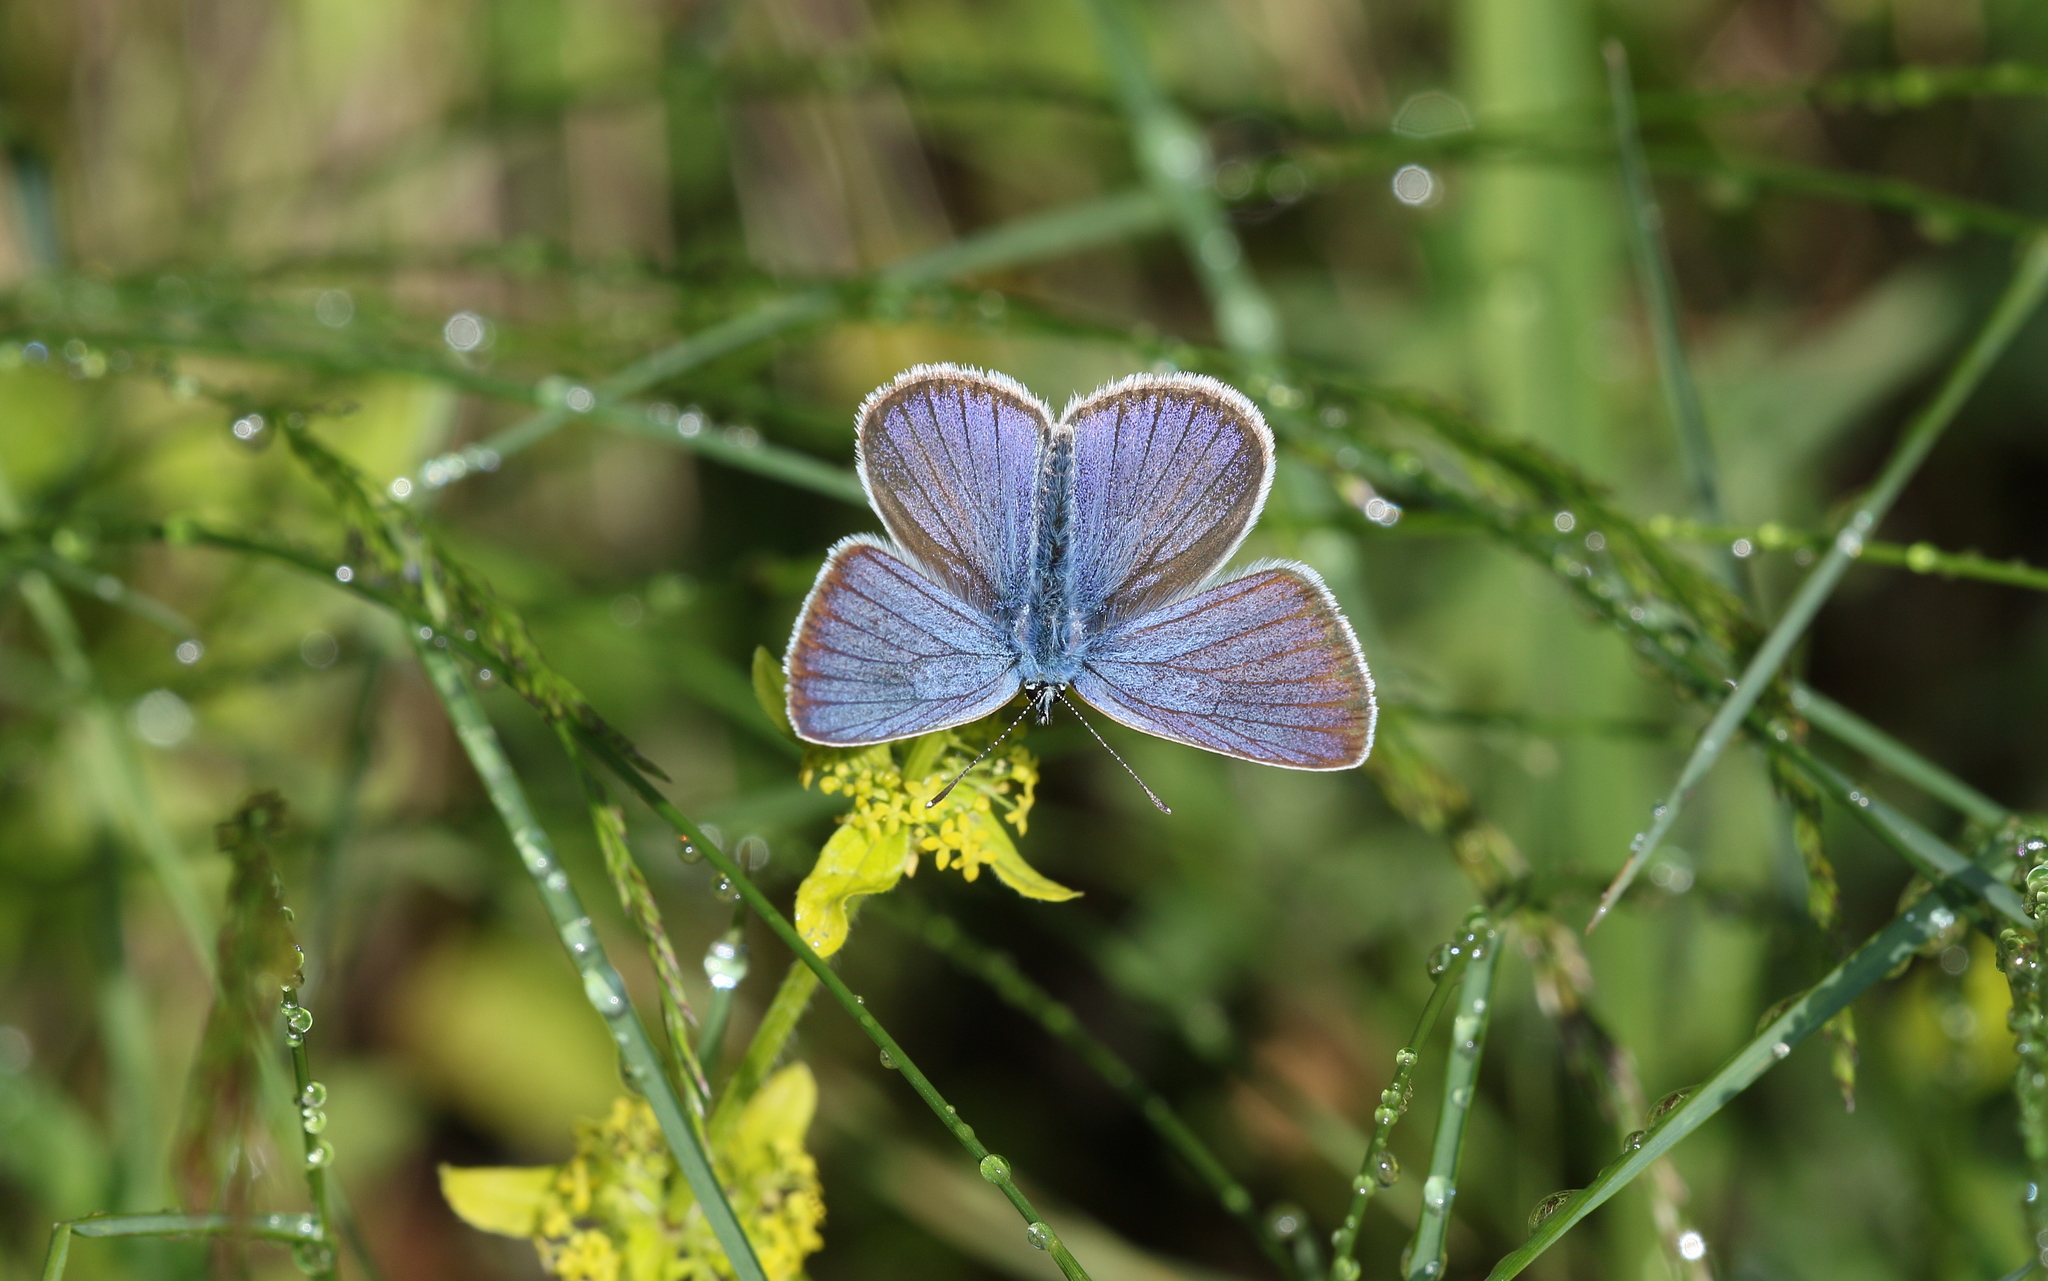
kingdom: Animalia
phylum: Arthropoda
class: Insecta
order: Lepidoptera
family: Lycaenidae
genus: Cyaniris
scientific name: Cyaniris semiargus
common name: Mazarine blue
